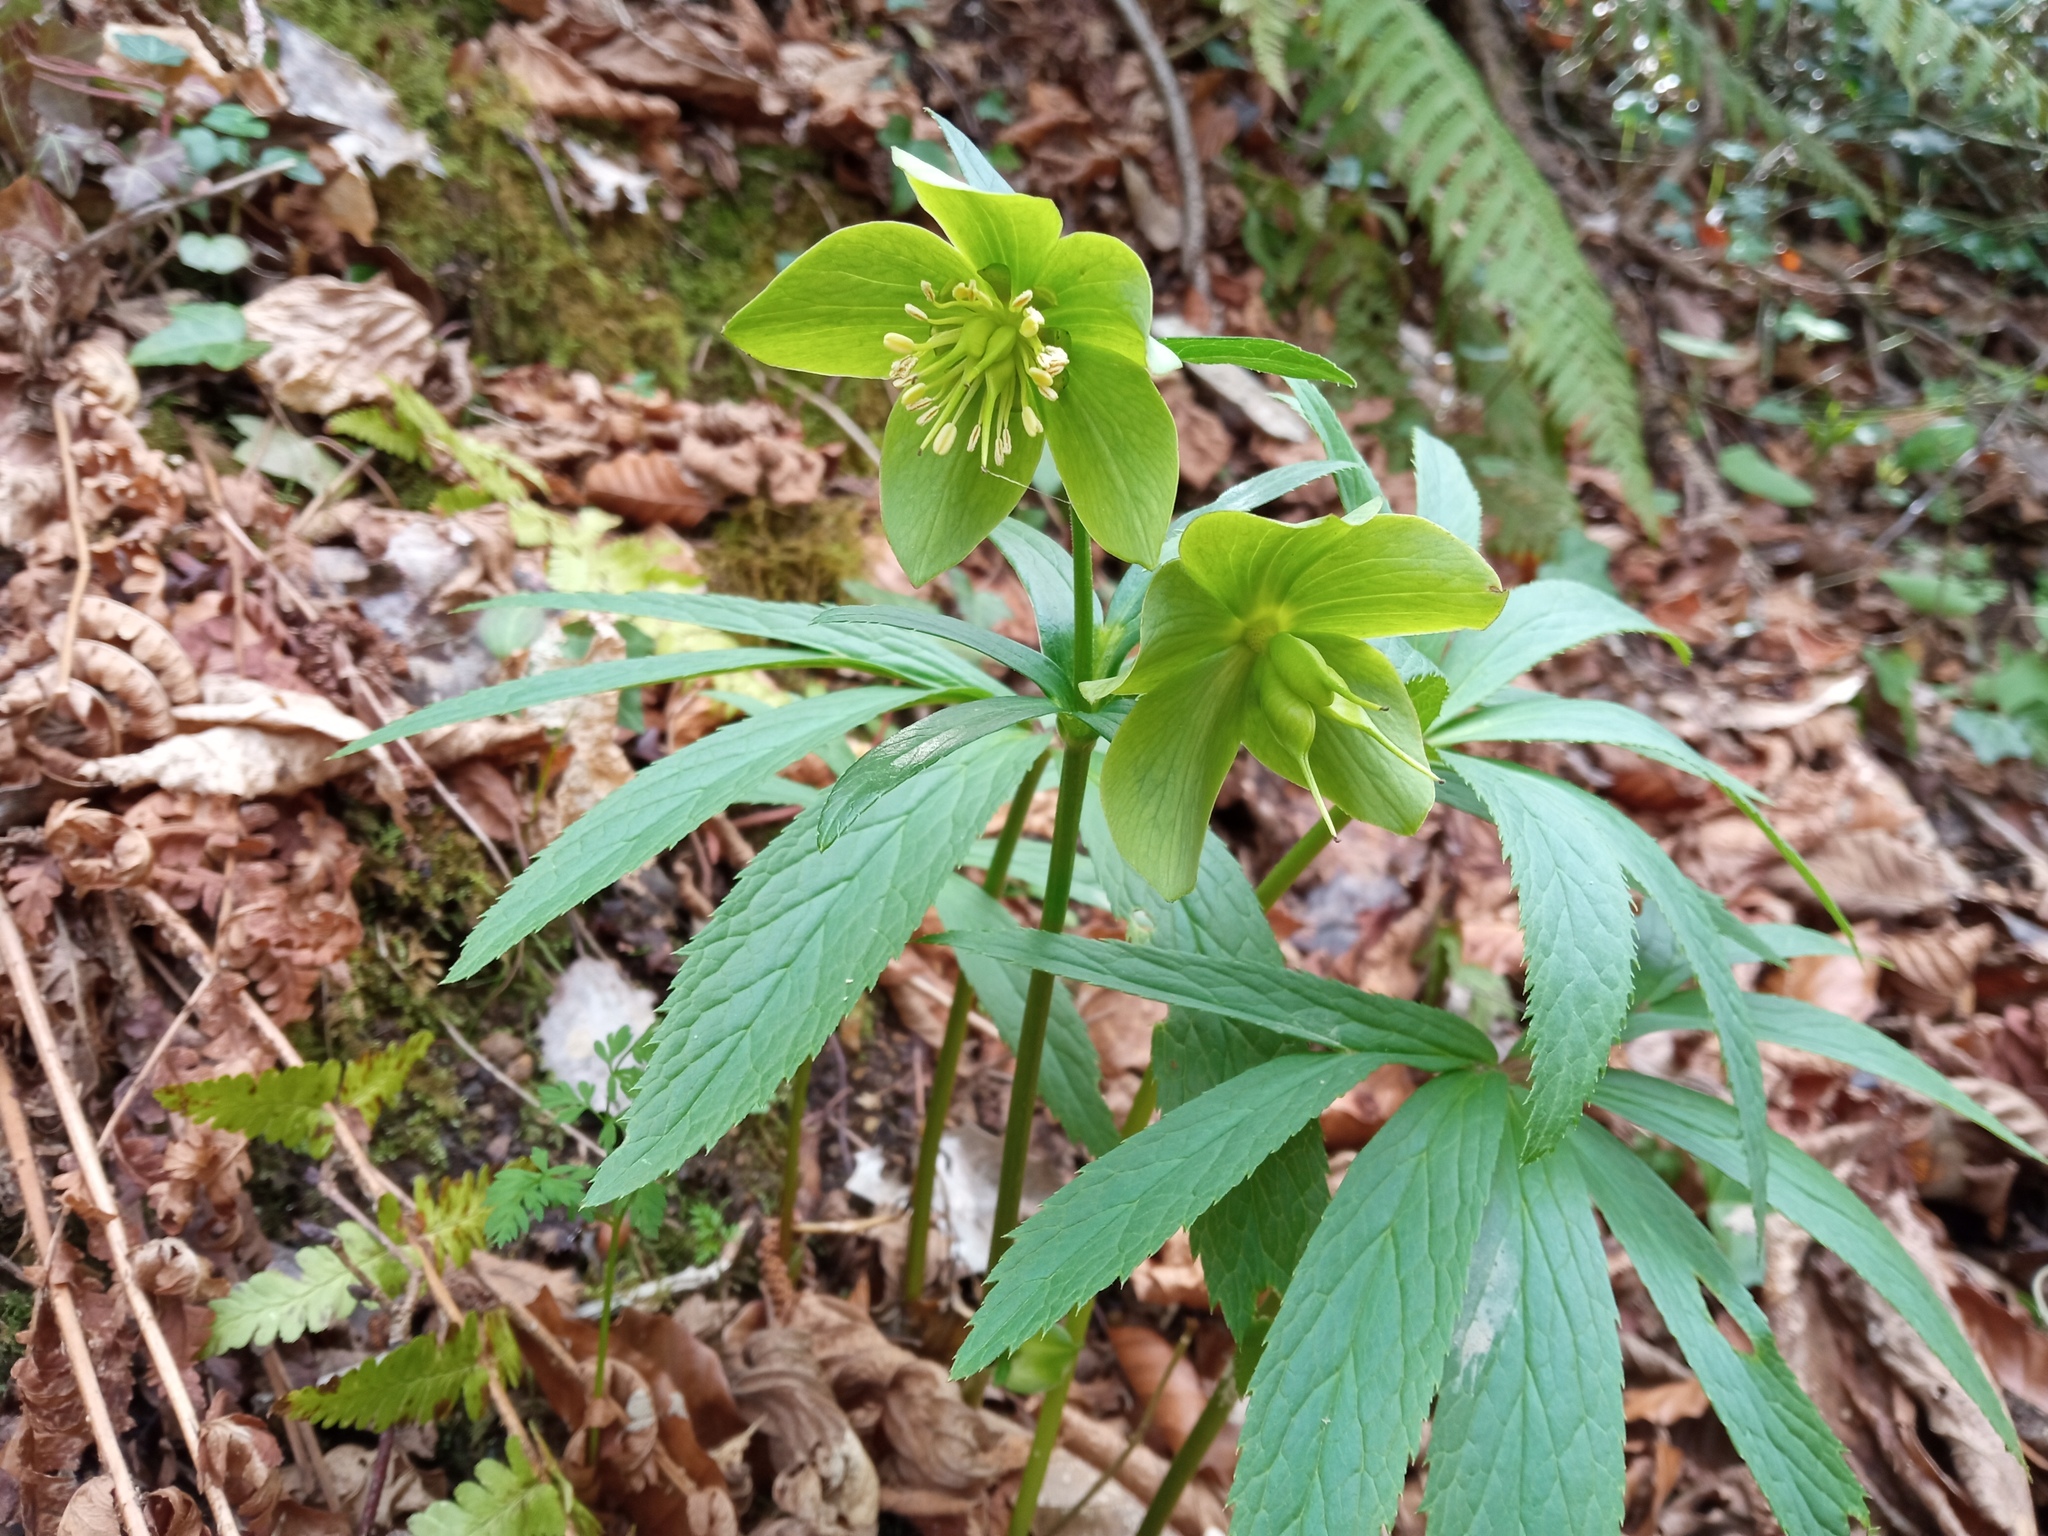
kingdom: Plantae
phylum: Tracheophyta
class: Magnoliopsida
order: Ranunculales
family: Ranunculaceae
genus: Helleborus
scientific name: Helleborus viridis
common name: Green hellebore
